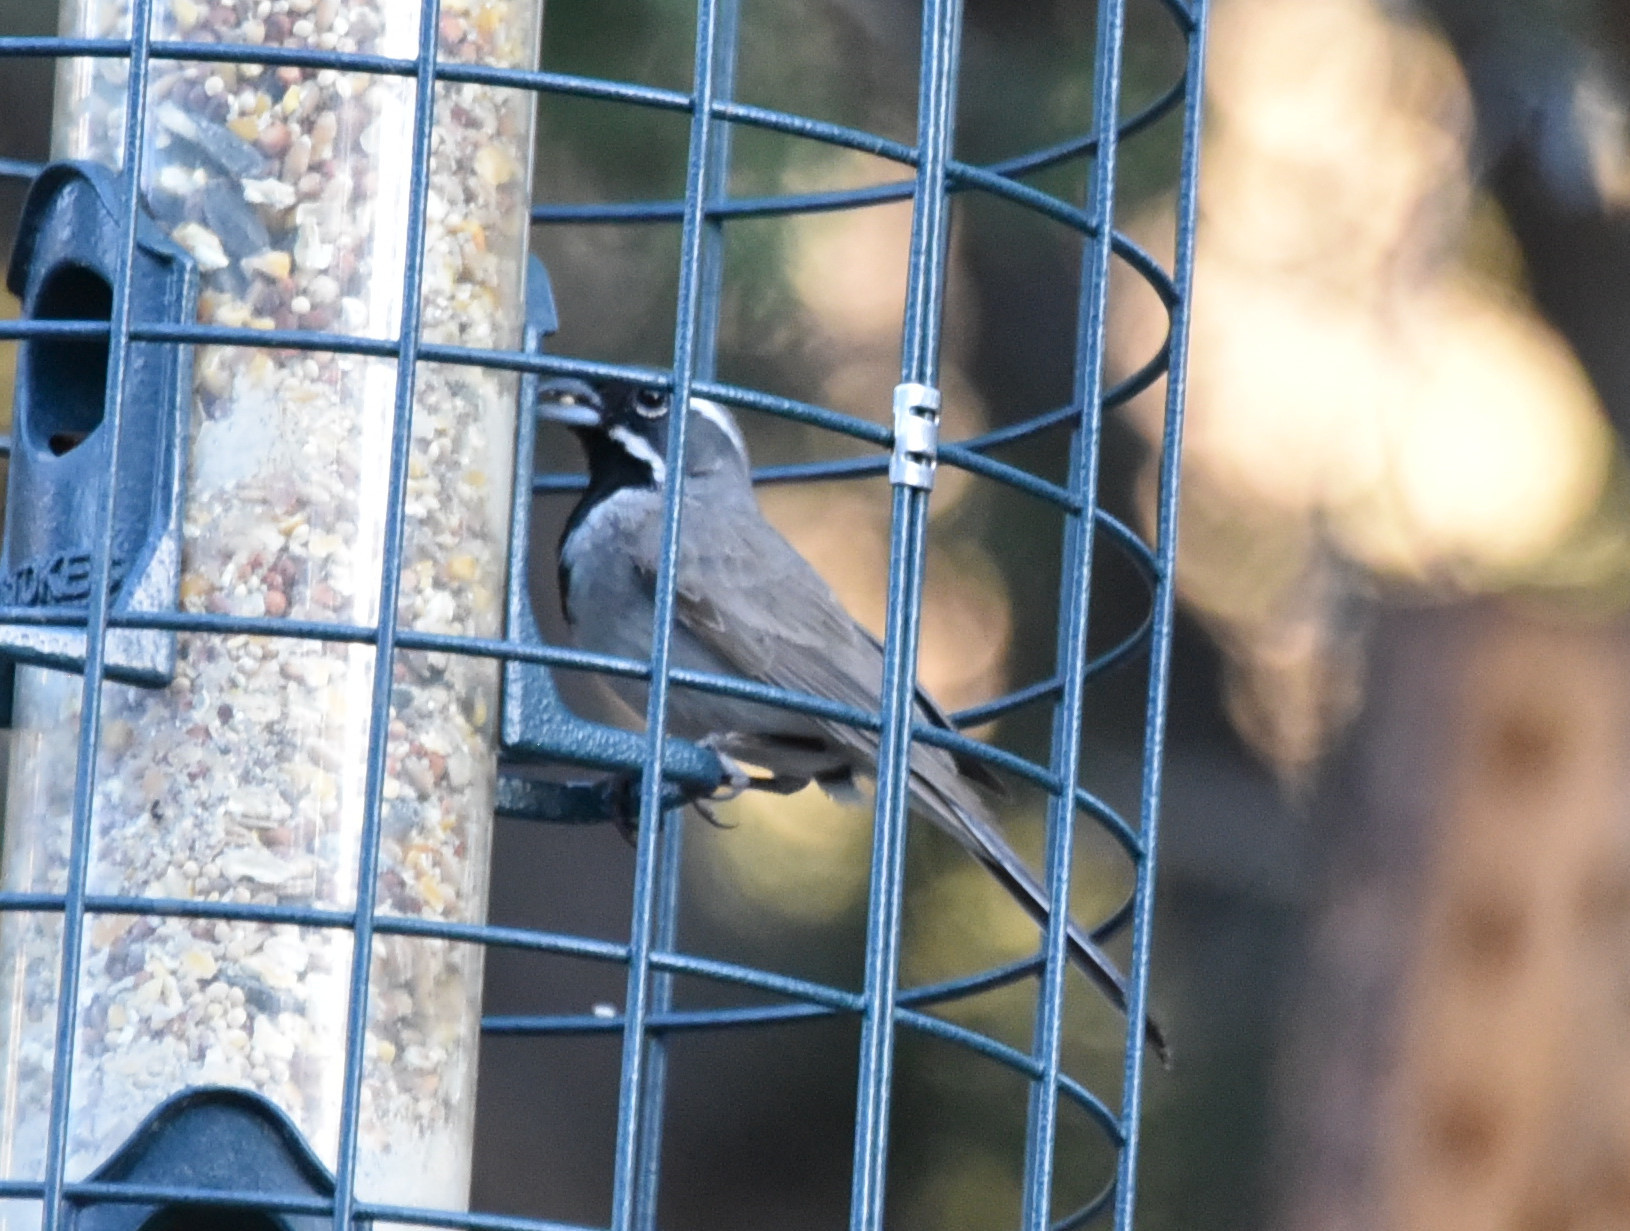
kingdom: Animalia
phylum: Chordata
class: Aves
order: Passeriformes
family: Passerellidae
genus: Amphispiza
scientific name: Amphispiza bilineata
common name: Black-throated sparrow
